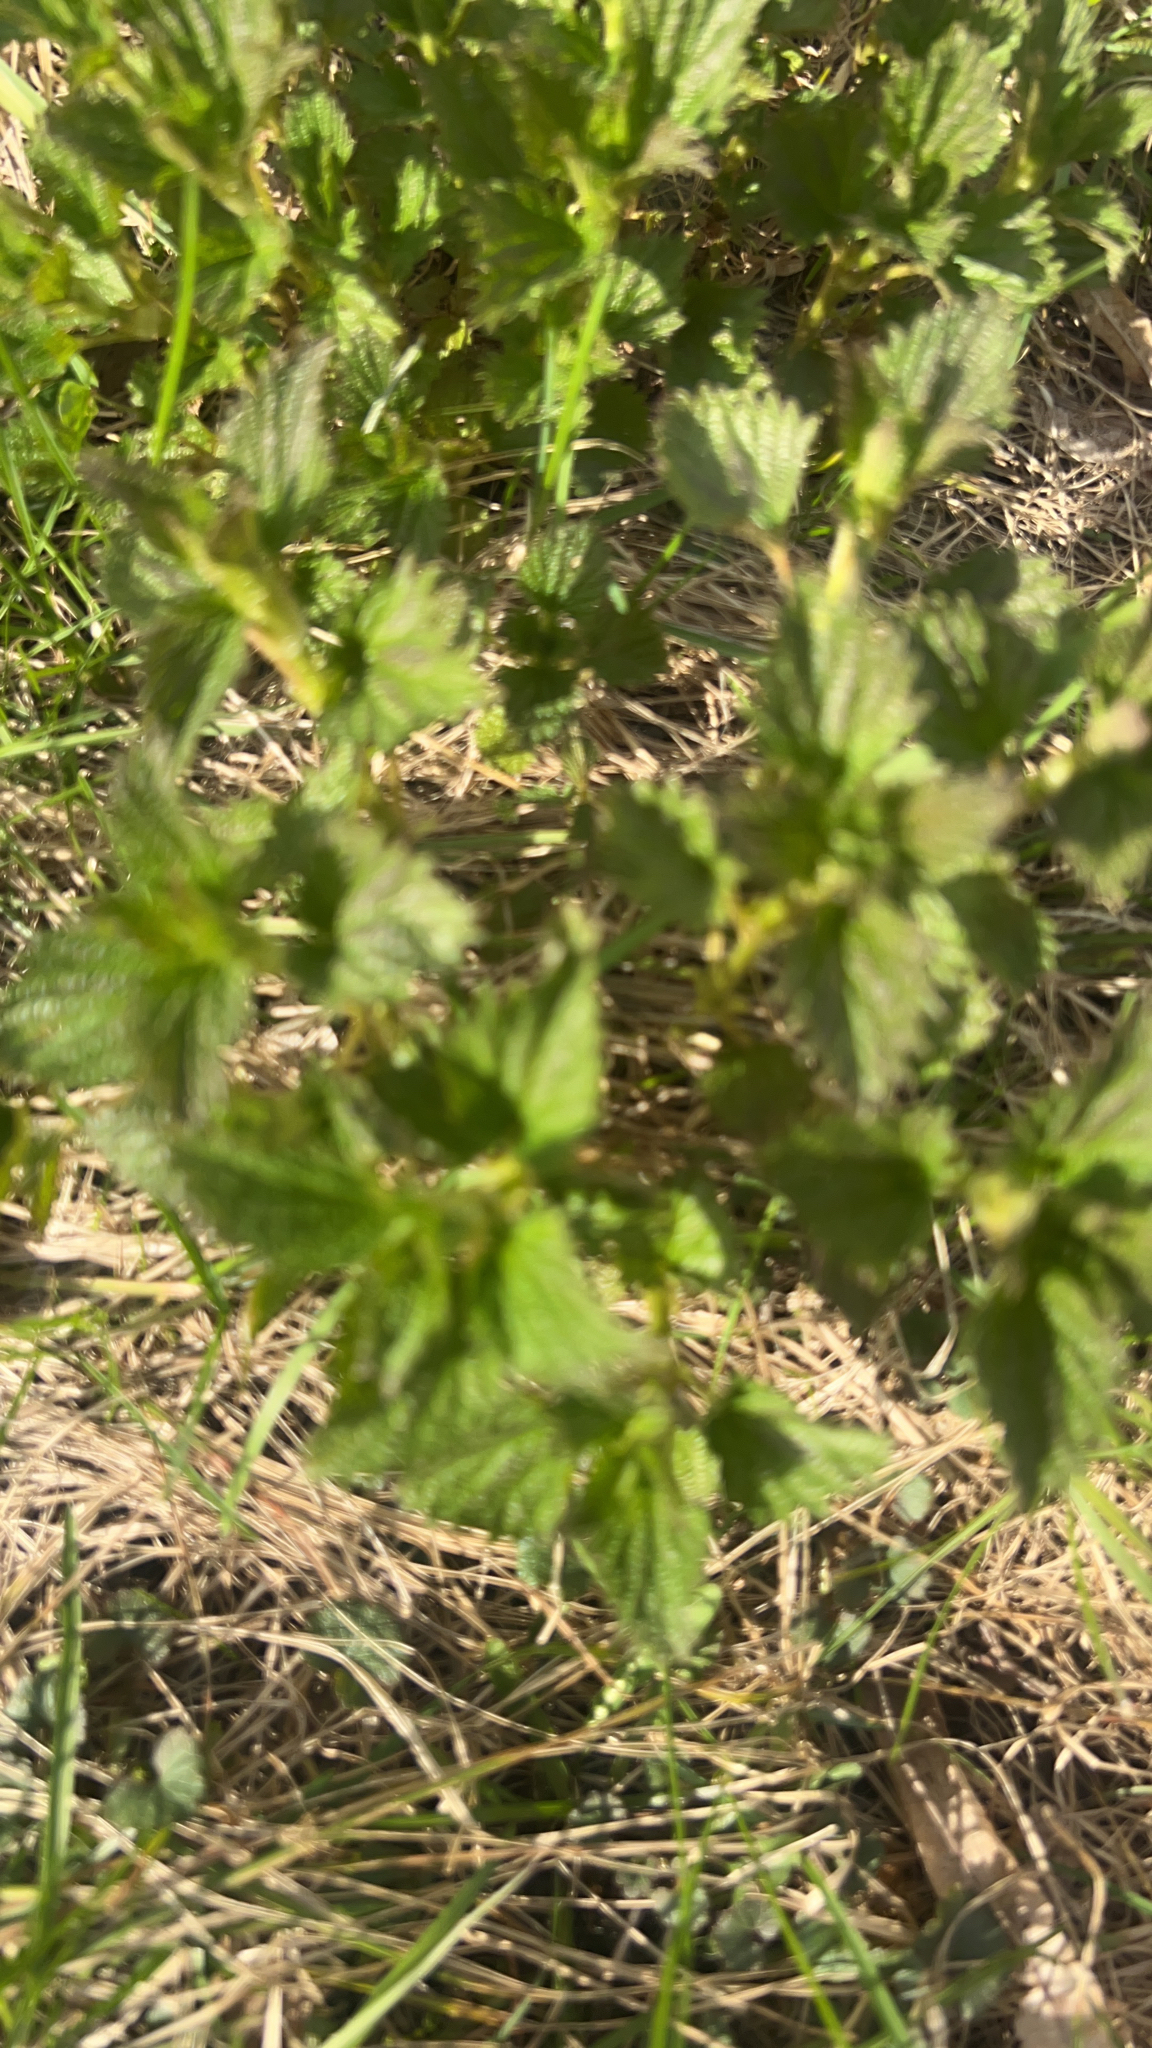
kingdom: Plantae
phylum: Tracheophyta
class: Magnoliopsida
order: Rosales
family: Urticaceae
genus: Urtica
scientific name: Urtica dioica
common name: Common nettle
